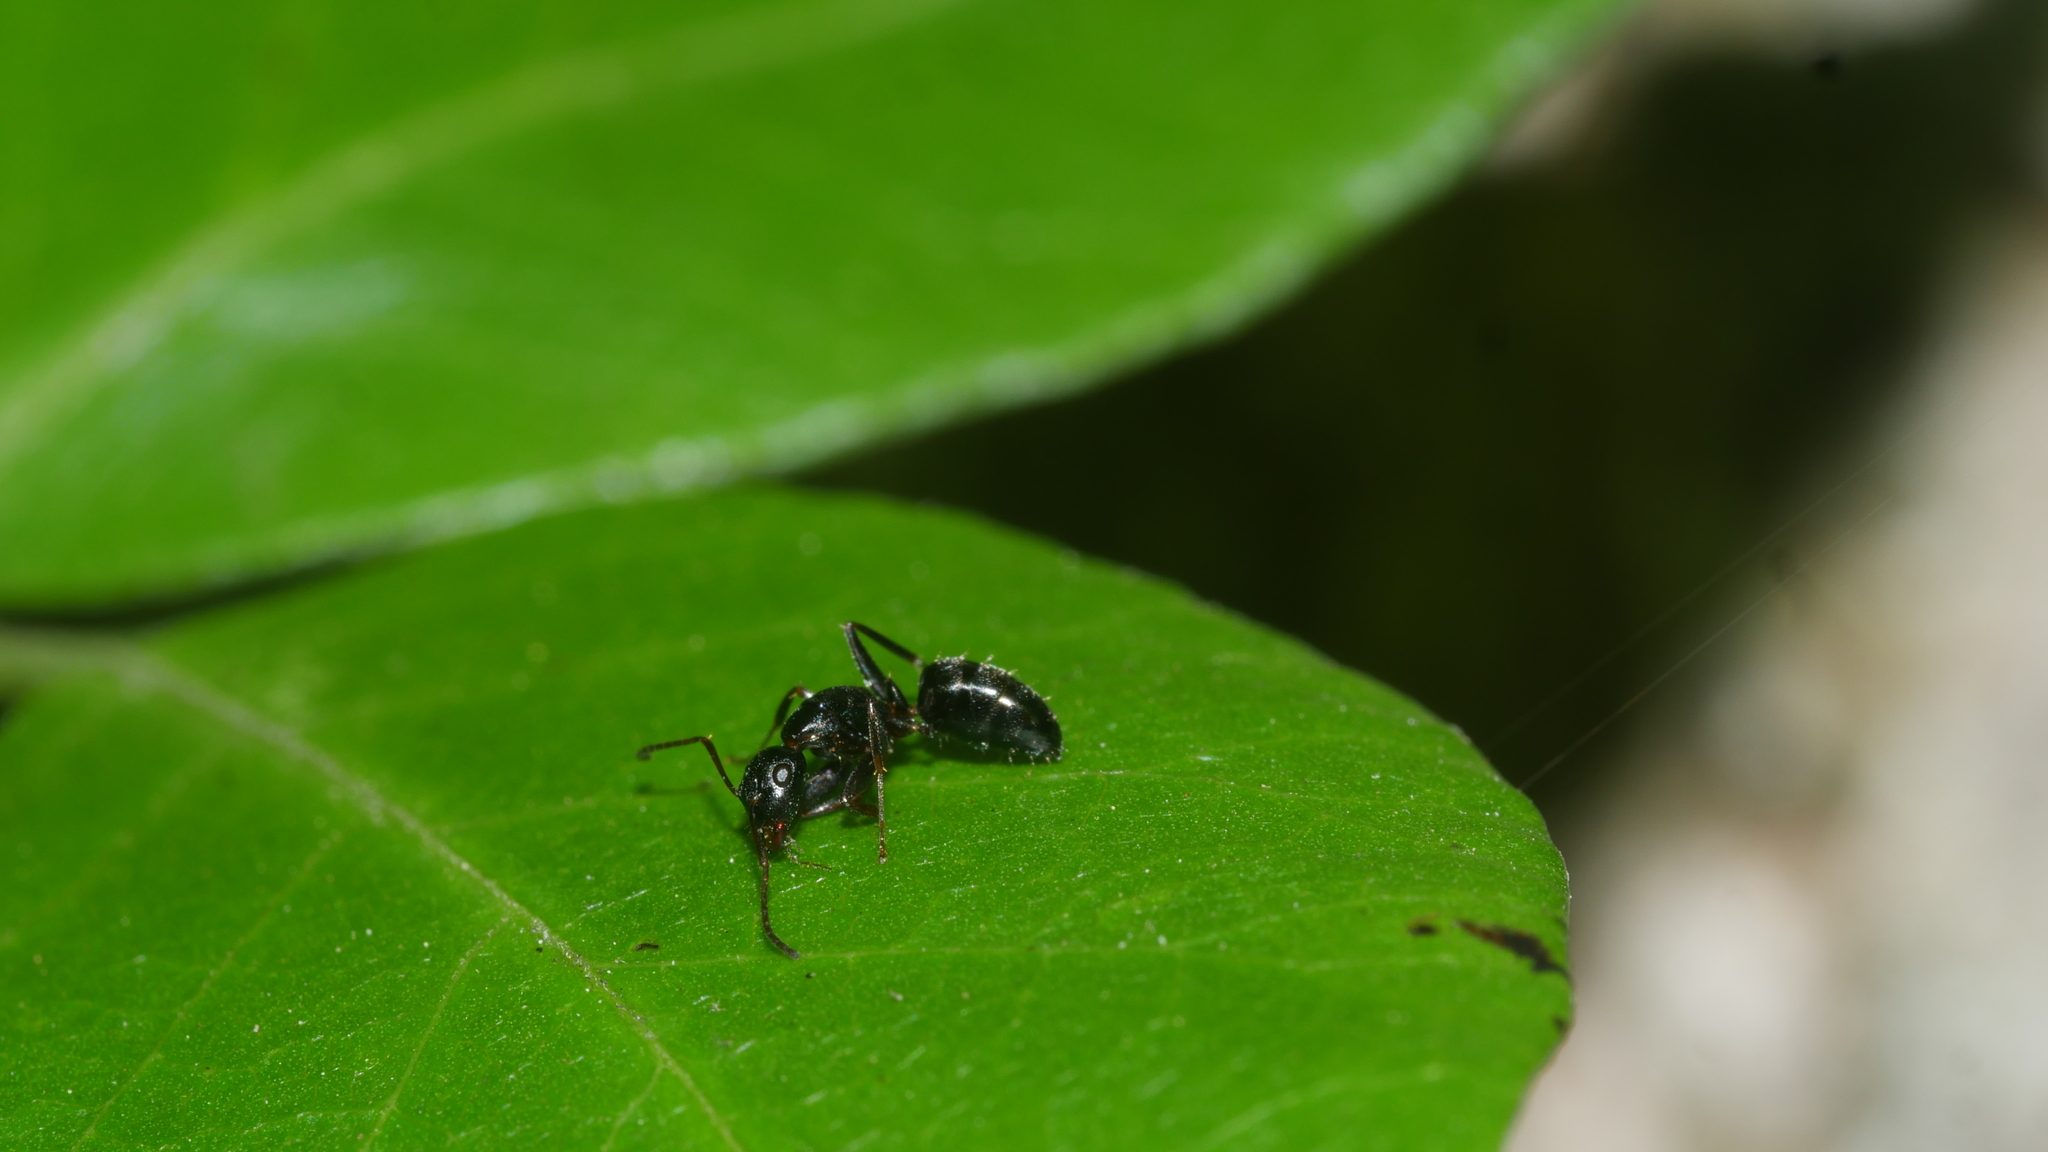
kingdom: Animalia
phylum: Arthropoda
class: Insecta
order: Hymenoptera
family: Formicidae
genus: Camponotus
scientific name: Camponotus pennsylvanicus
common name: Black carpenter ant
